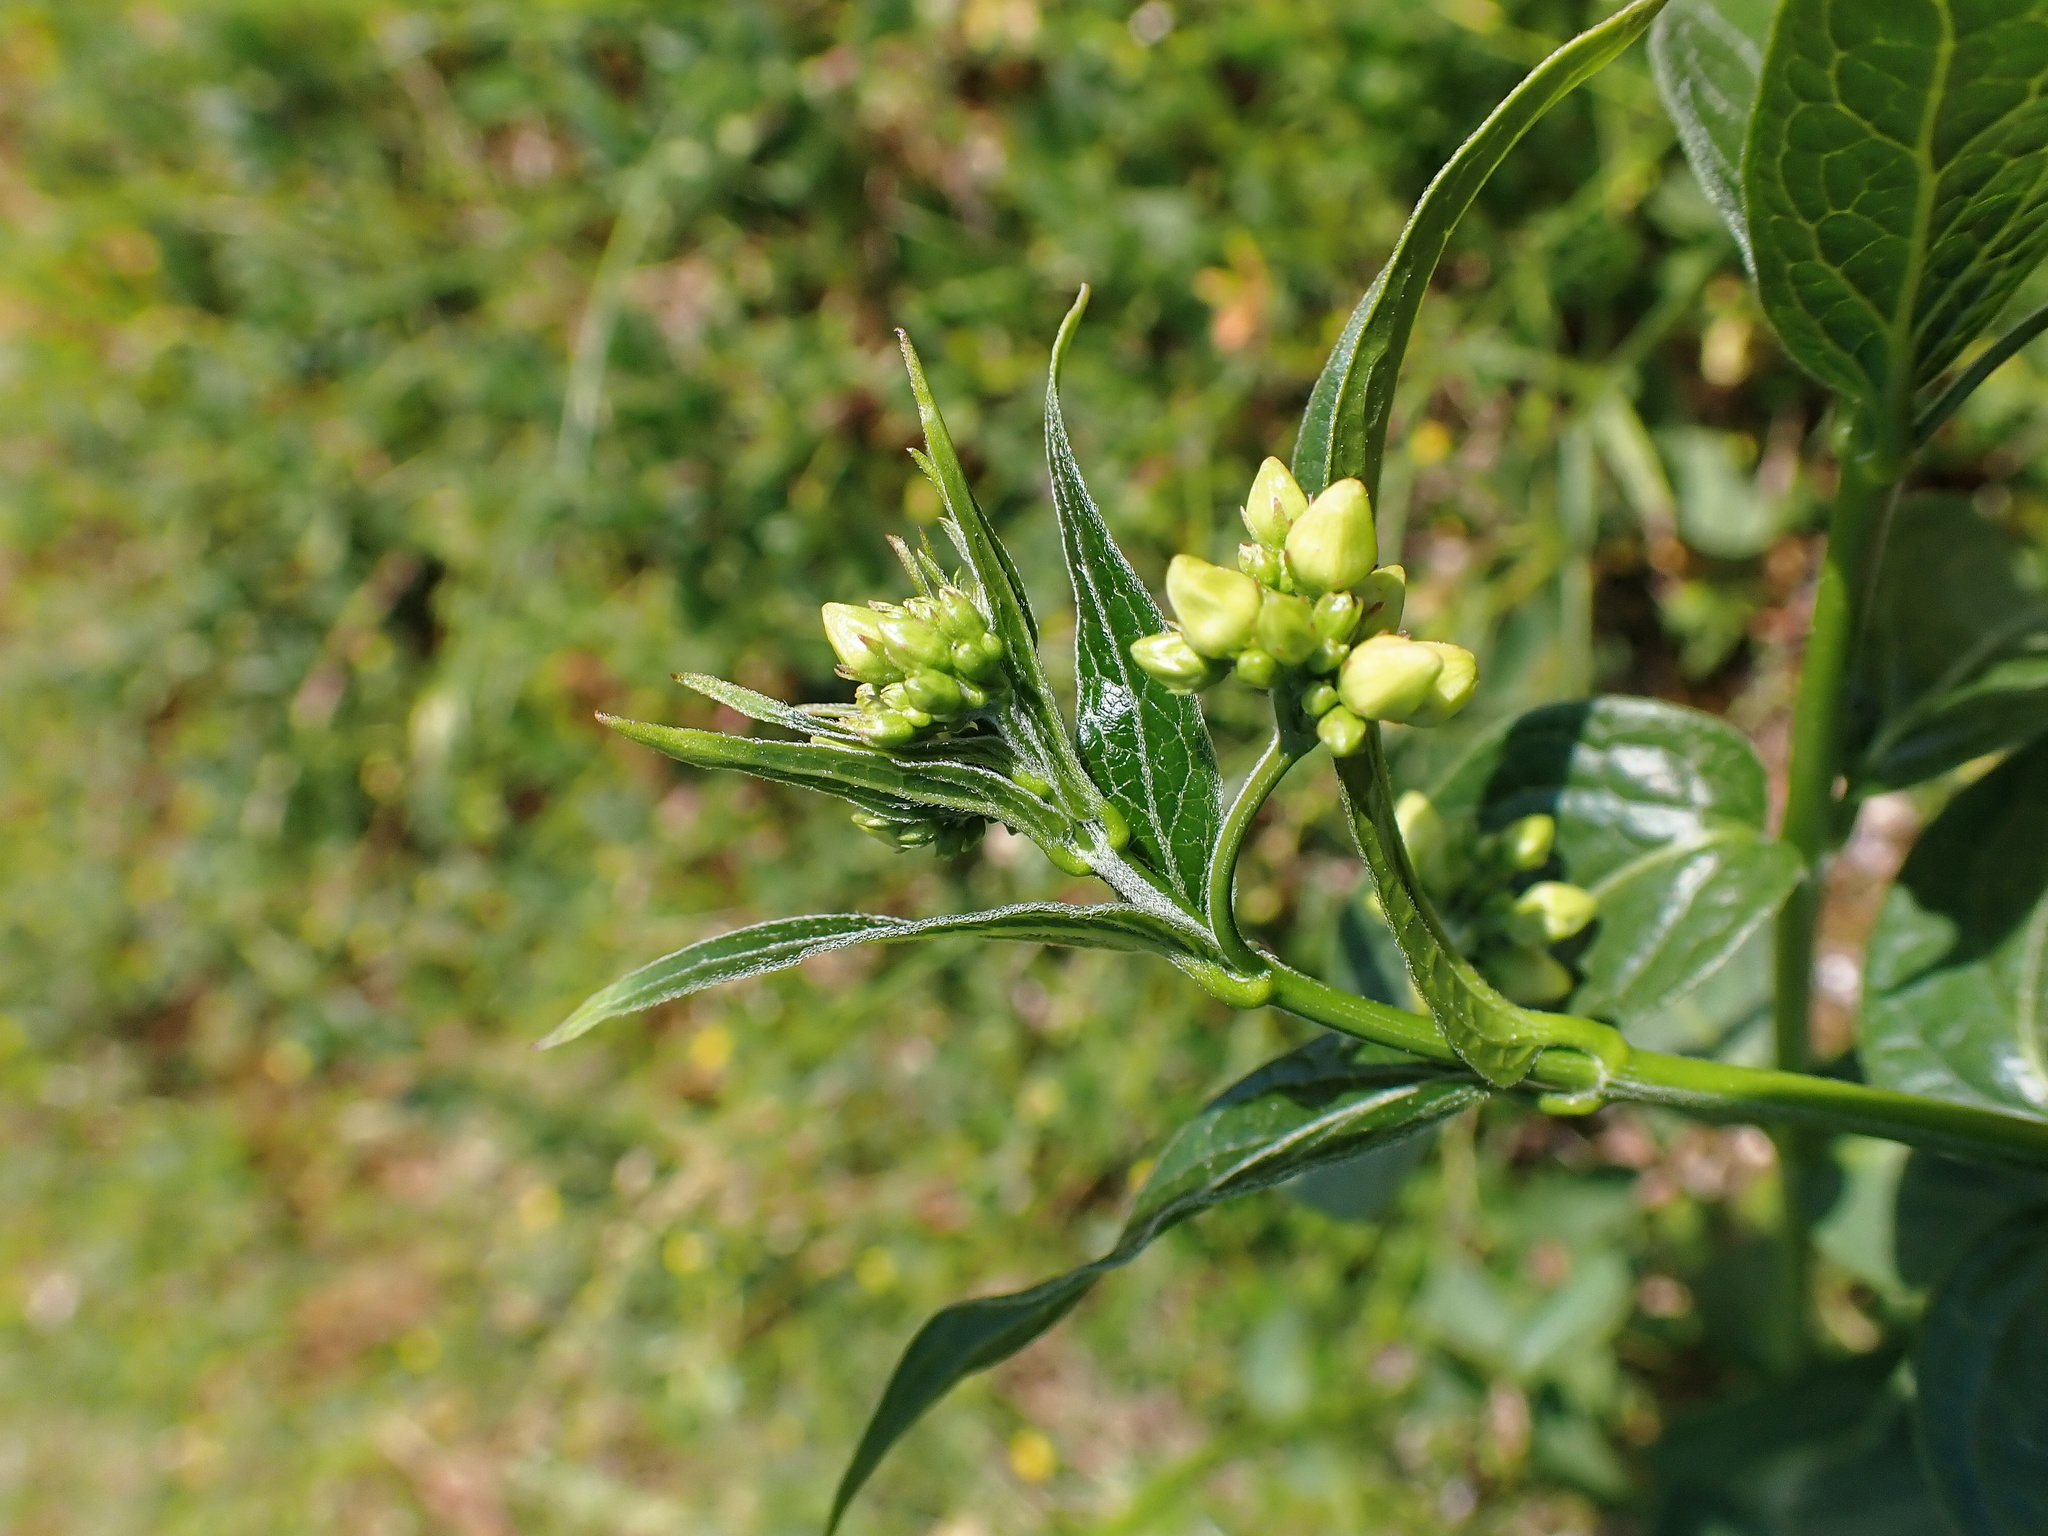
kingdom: Plantae
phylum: Tracheophyta
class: Magnoliopsida
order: Gentianales
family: Apocynaceae
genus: Vincetoxicum
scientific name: Vincetoxicum hirundinaria
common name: White swallowwort
